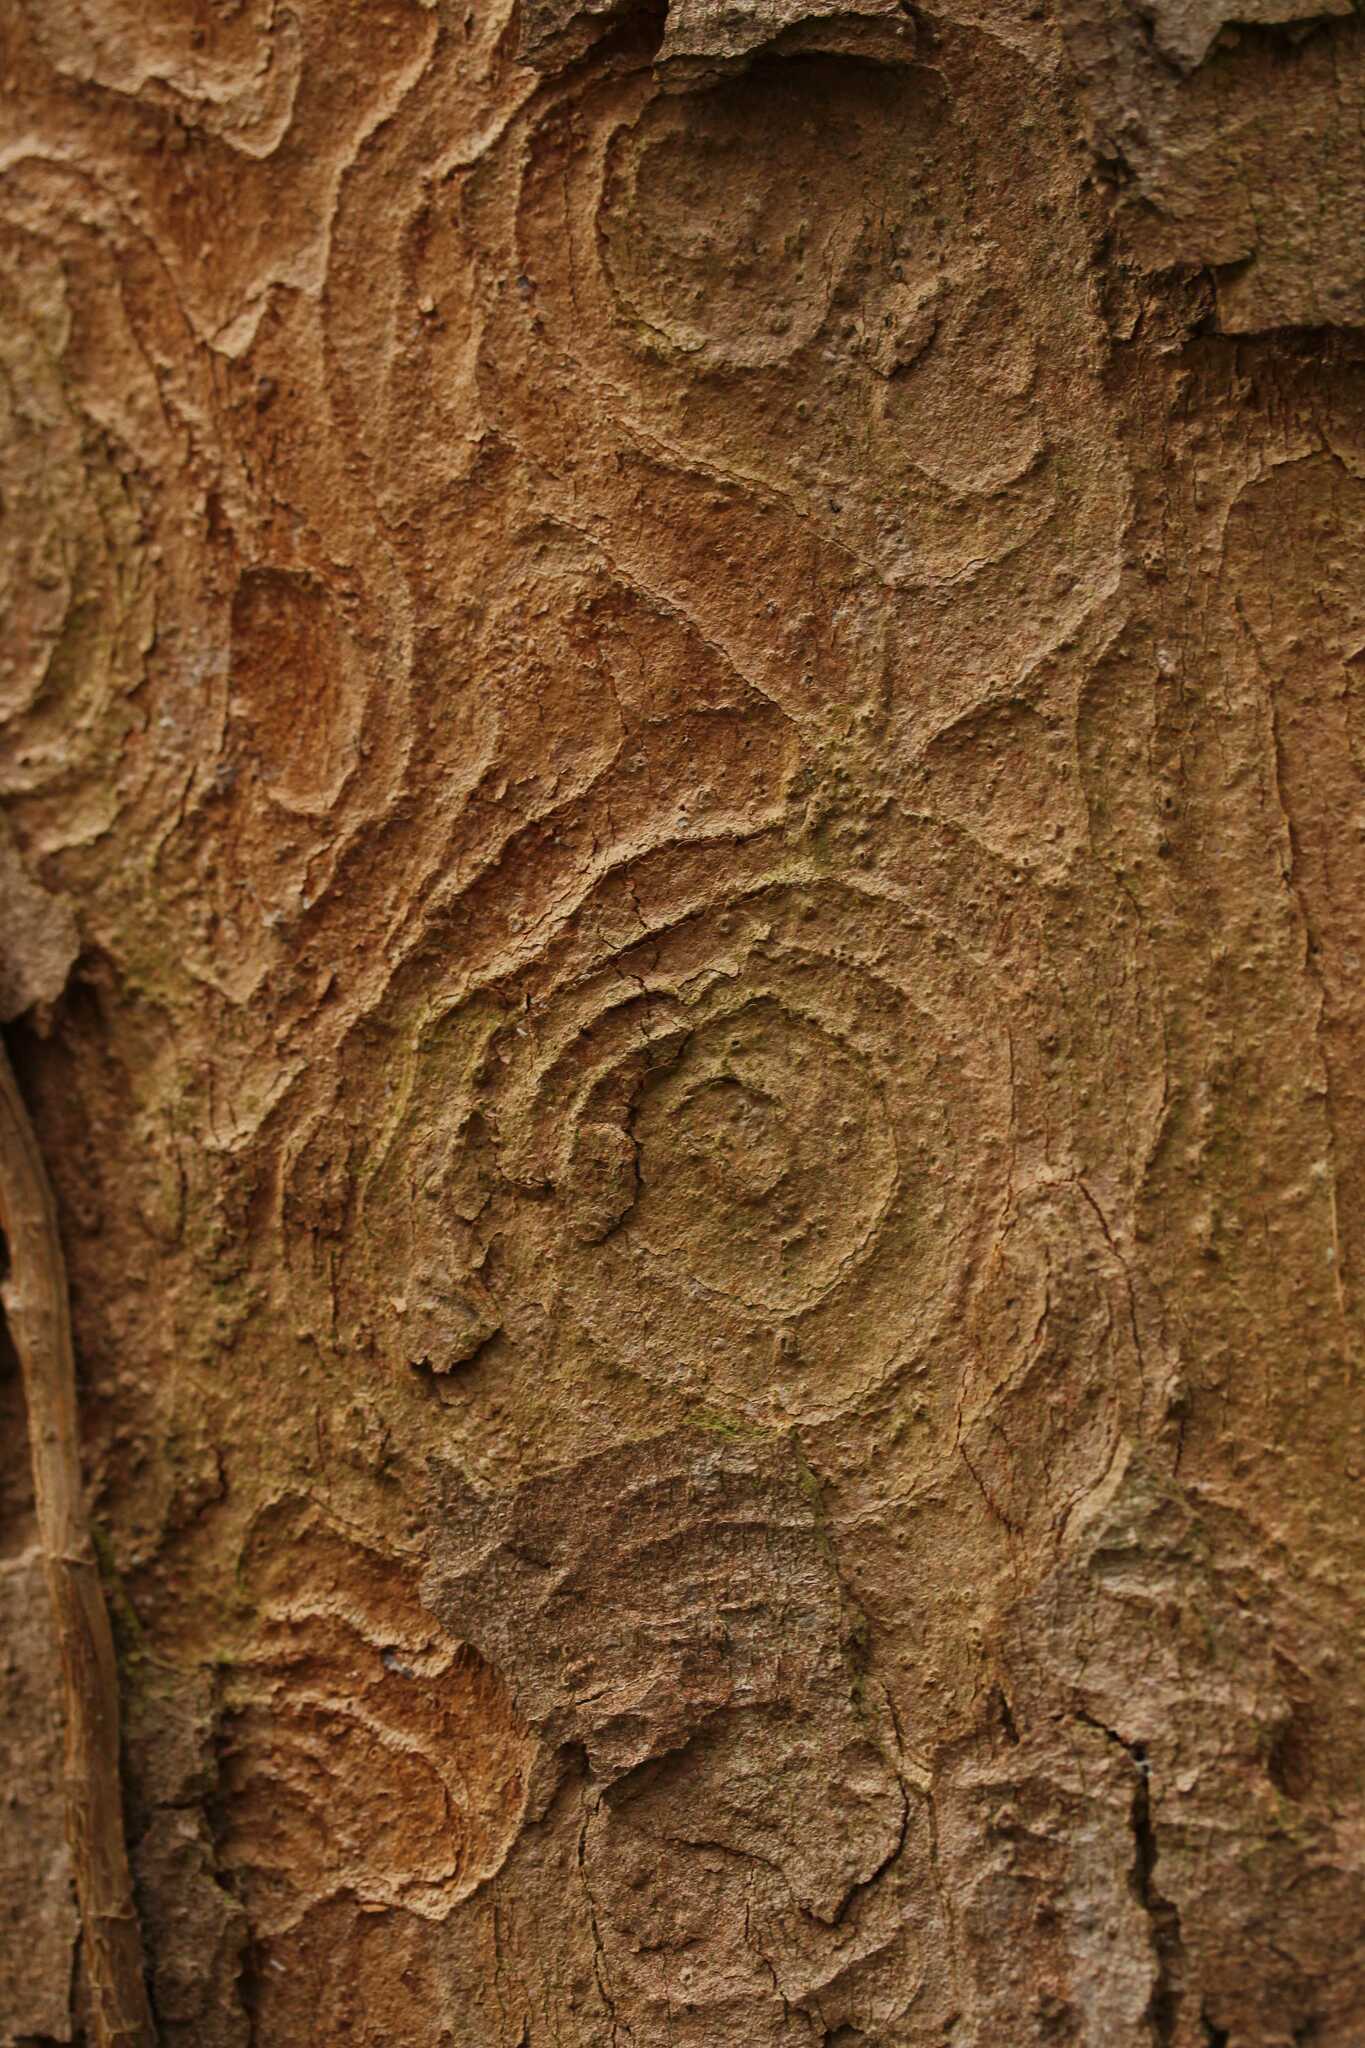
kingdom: Plantae
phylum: Tracheophyta
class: Magnoliopsida
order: Sapindales
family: Sapindaceae
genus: Acer
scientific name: Acer pseudoplatanus
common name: Sycamore
